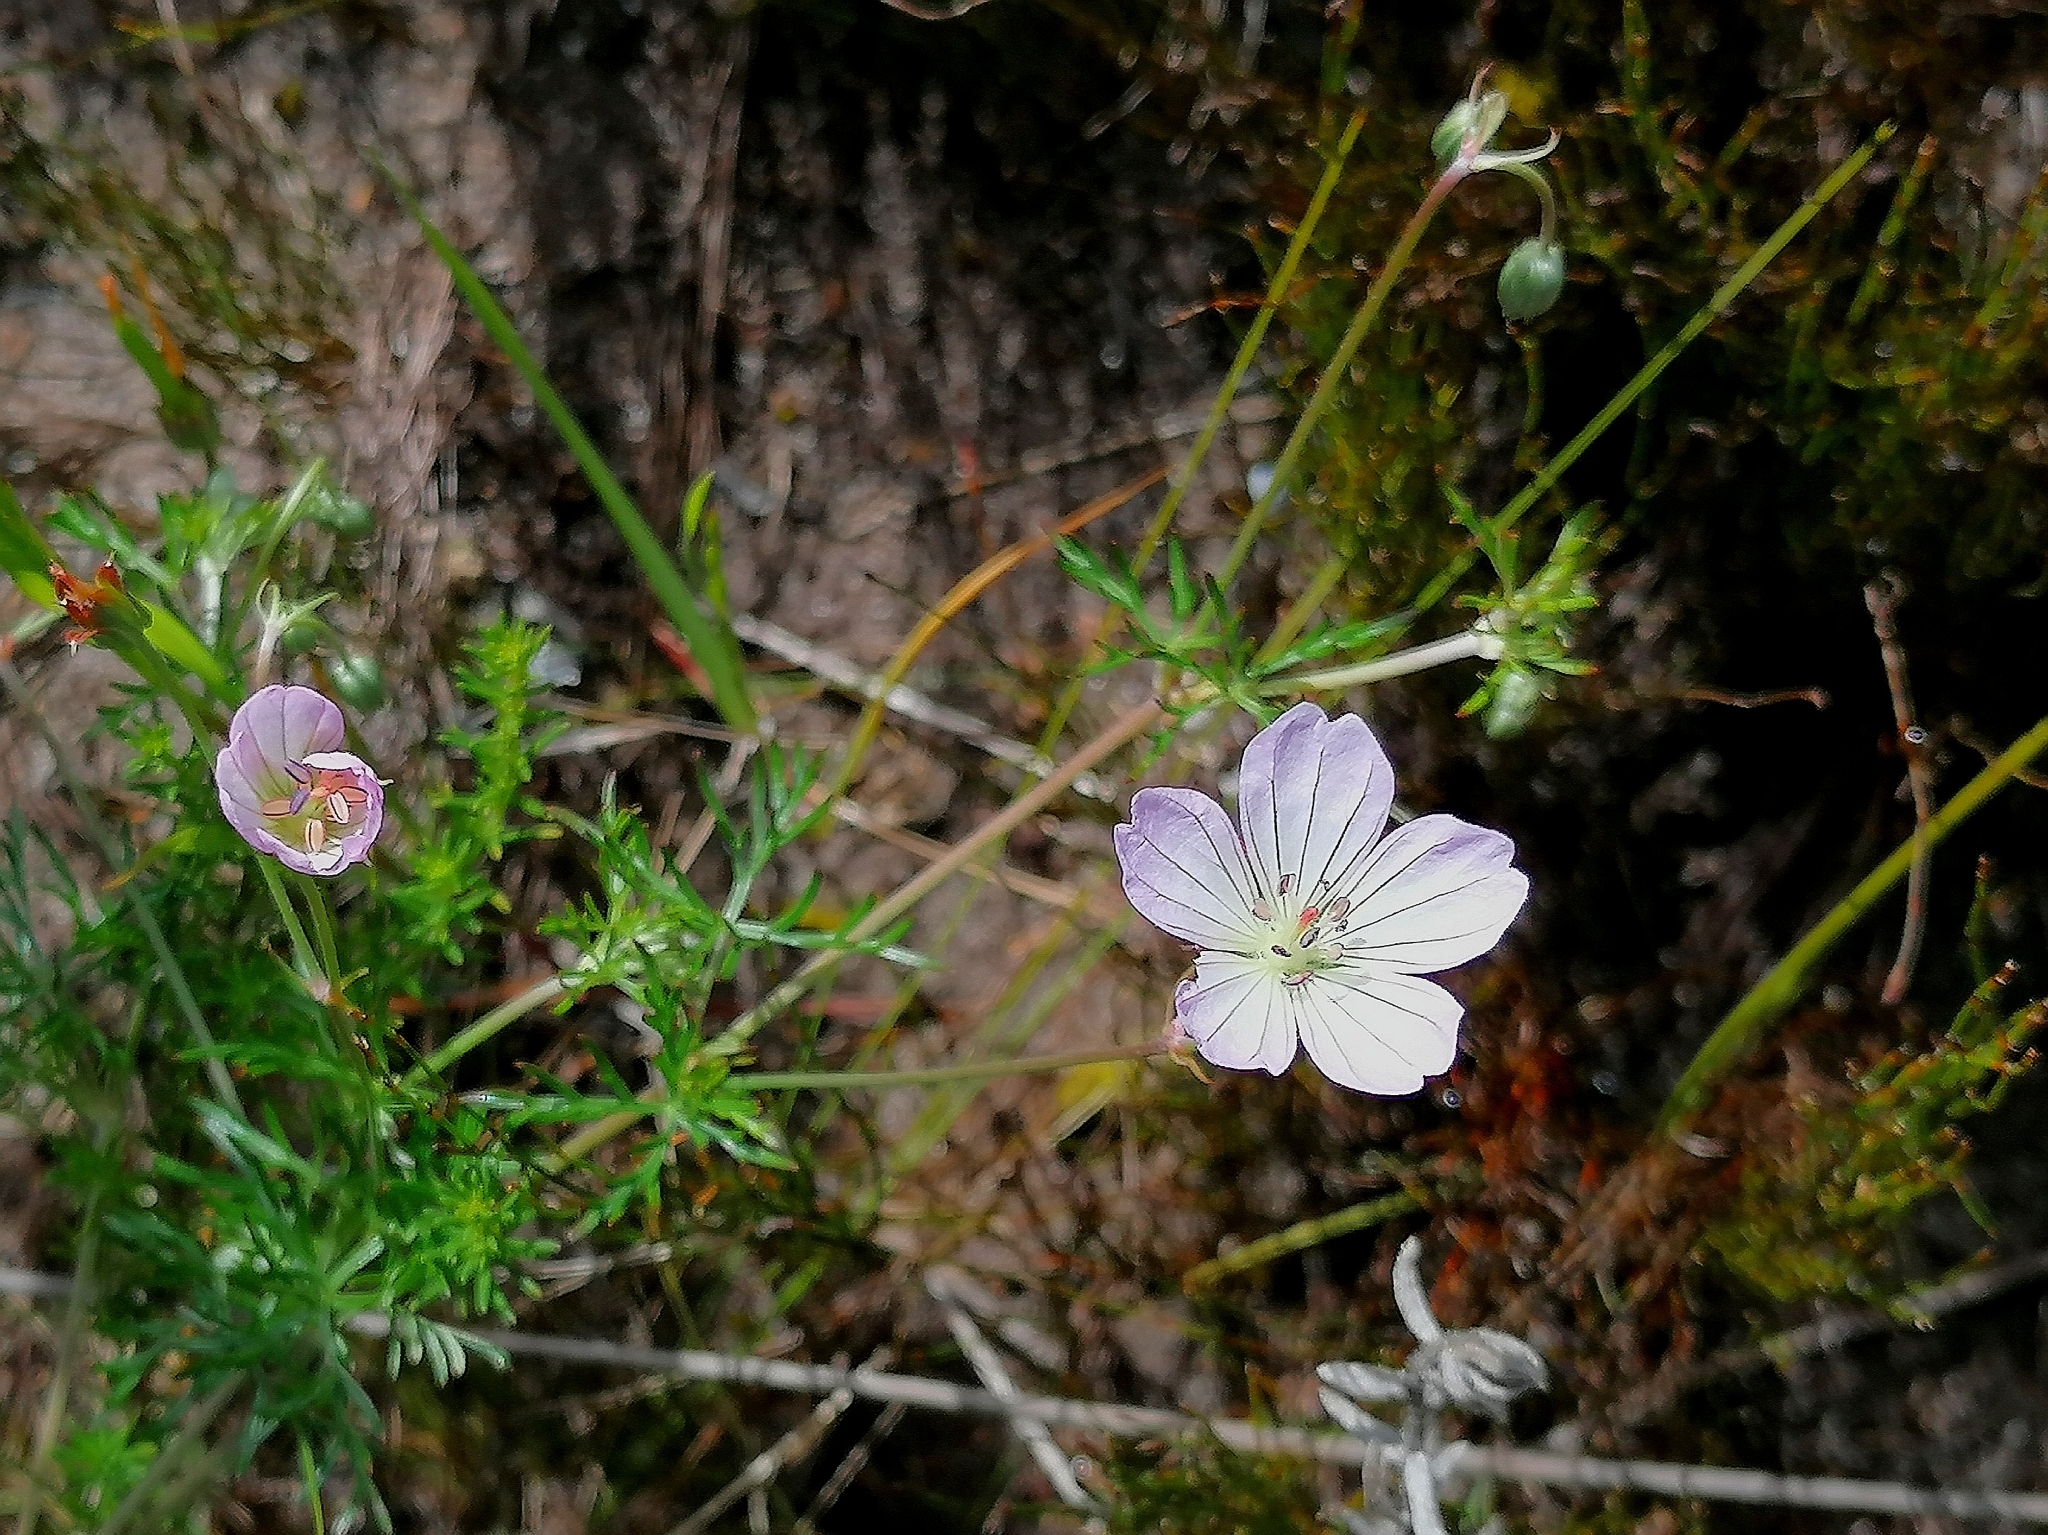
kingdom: Plantae
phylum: Tracheophyta
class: Magnoliopsida
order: Geraniales
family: Geraniaceae
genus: Geranium
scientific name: Geranium incanum
